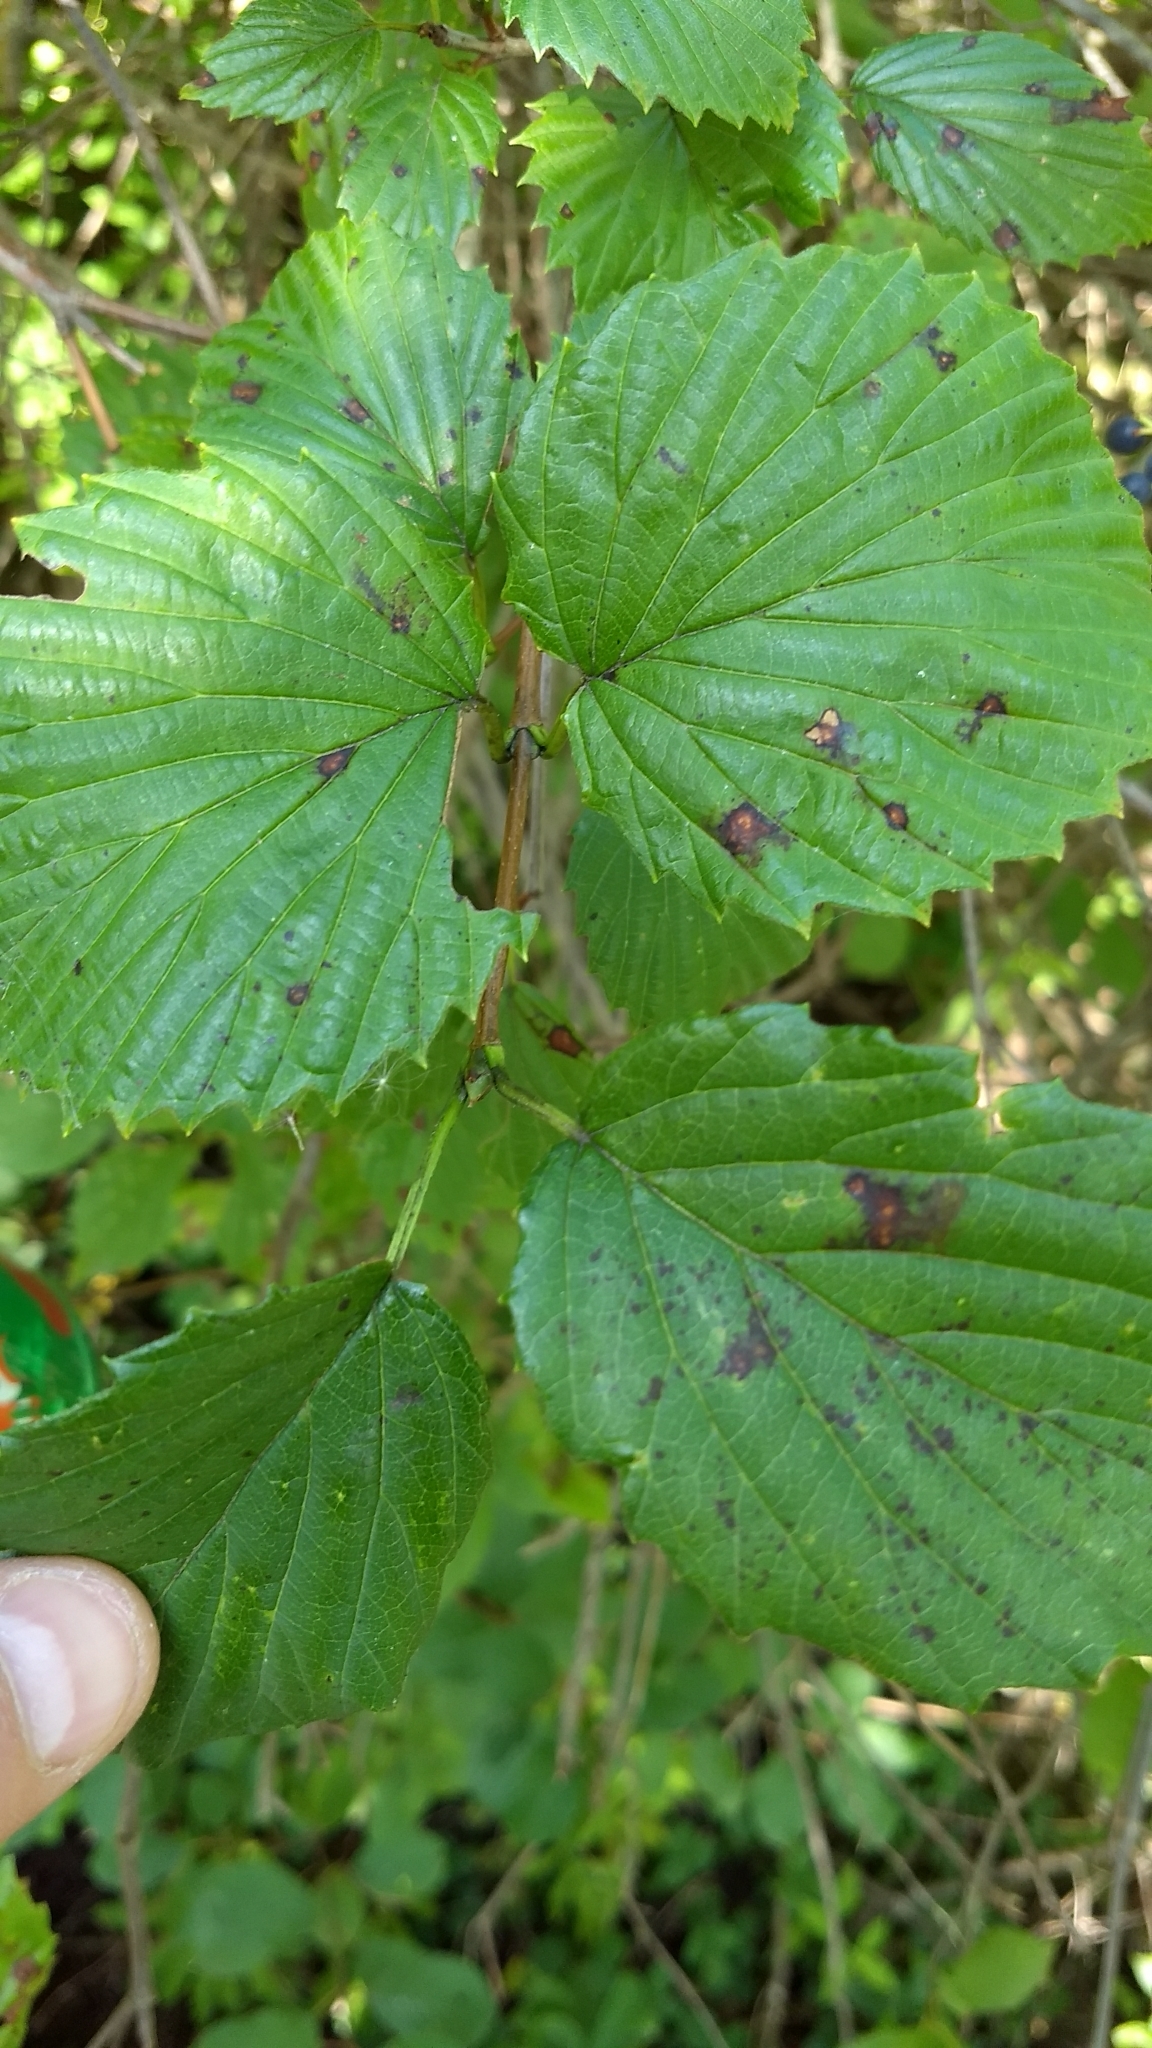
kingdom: Plantae
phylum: Tracheophyta
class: Magnoliopsida
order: Dipsacales
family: Viburnaceae
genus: Viburnum
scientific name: Viburnum recognitum
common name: Northern arrow-wood
